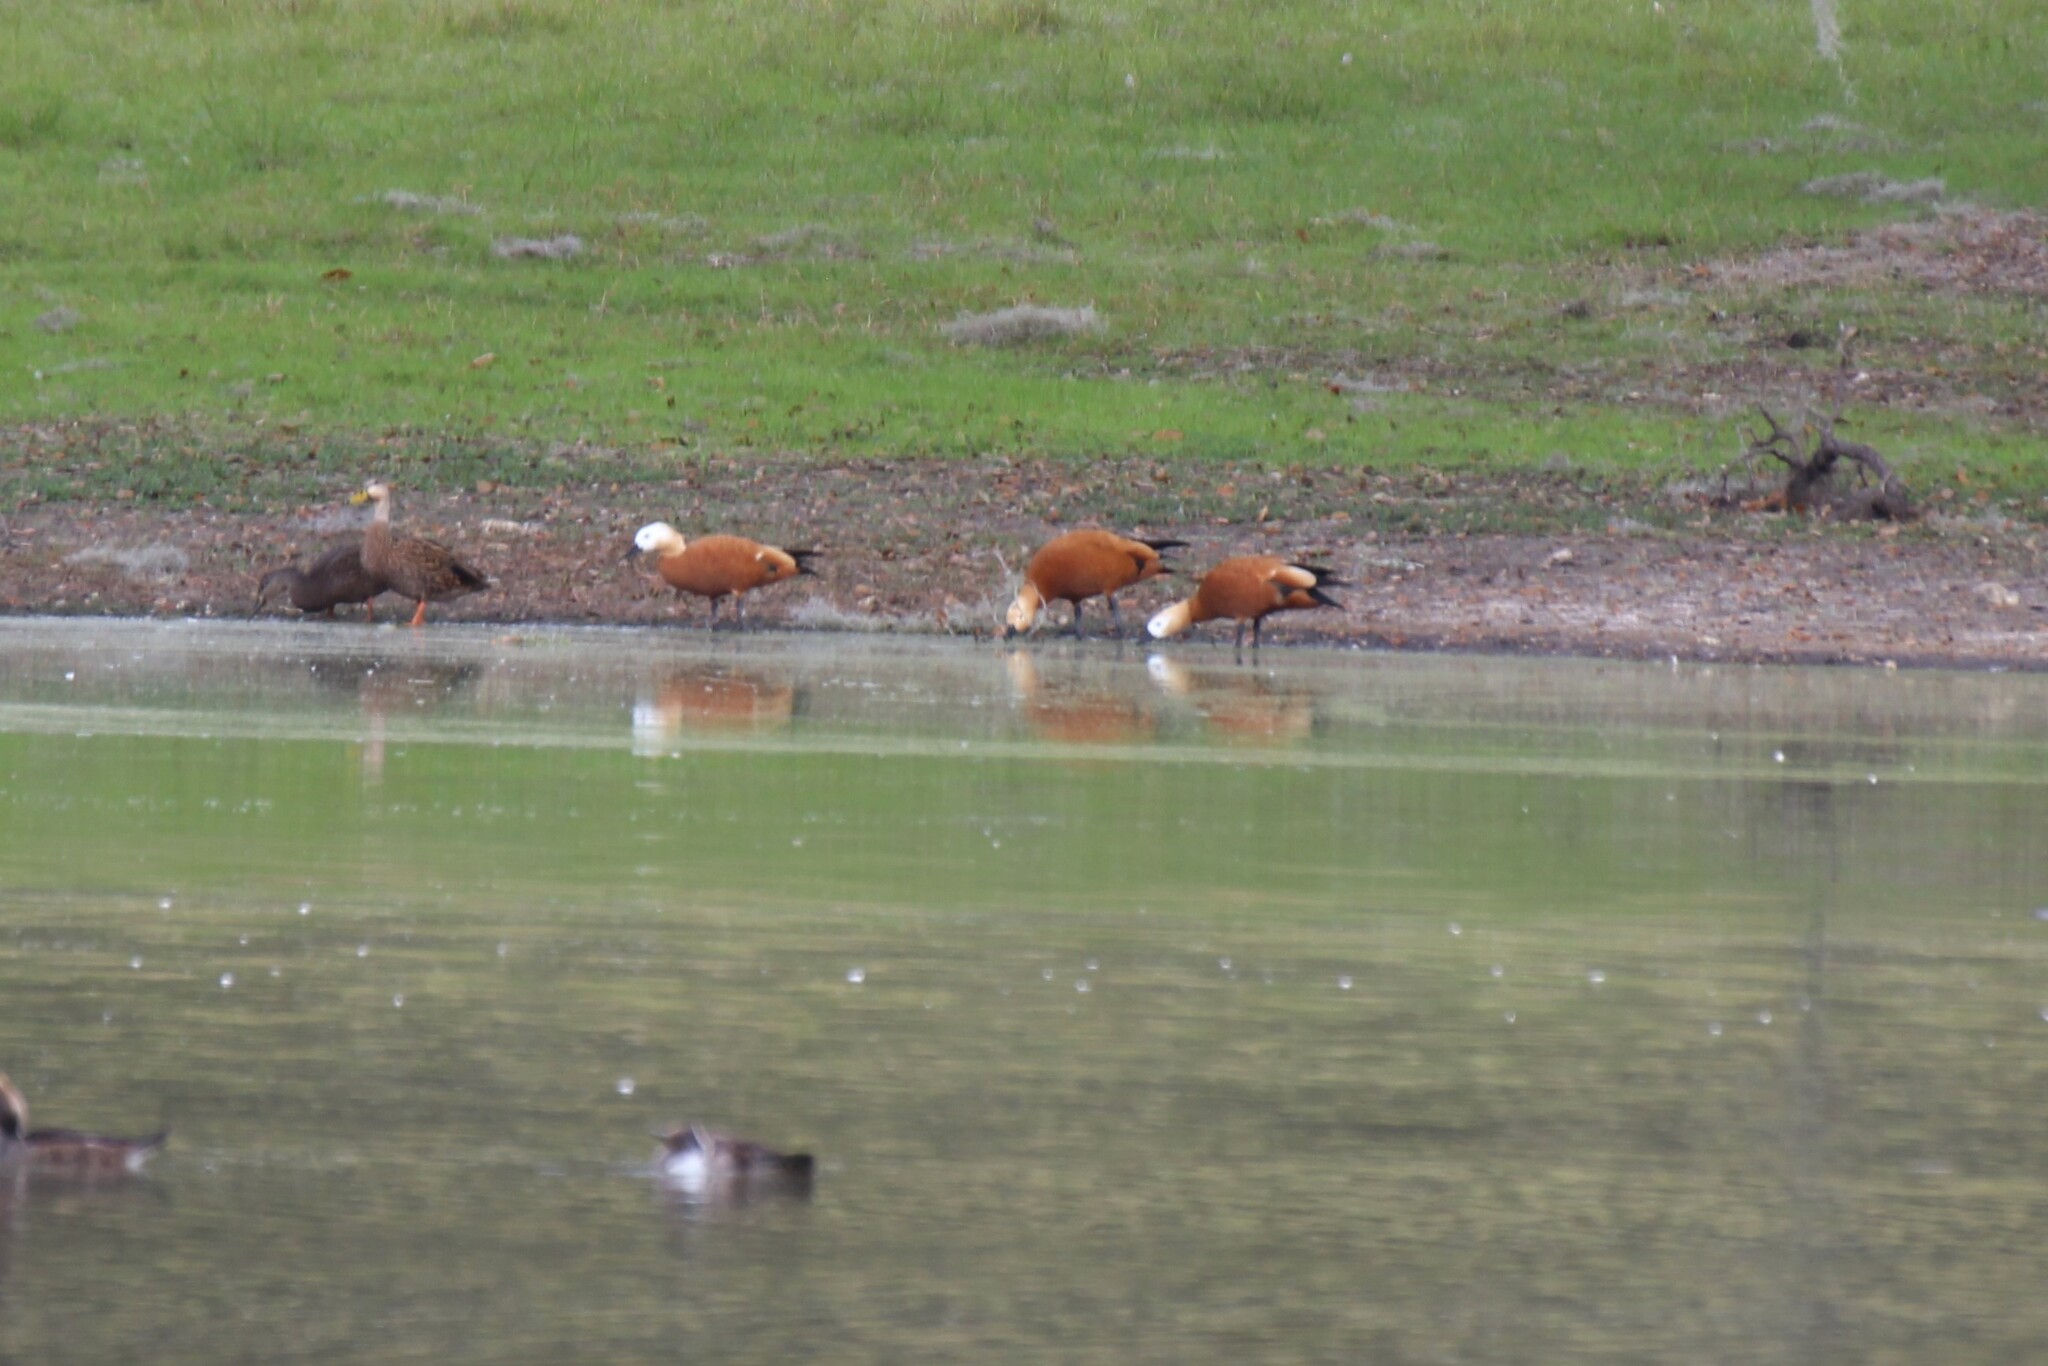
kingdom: Animalia
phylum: Chordata
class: Aves
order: Anseriformes
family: Anatidae
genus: Tadorna
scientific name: Tadorna ferruginea
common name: Ruddy shelduck
